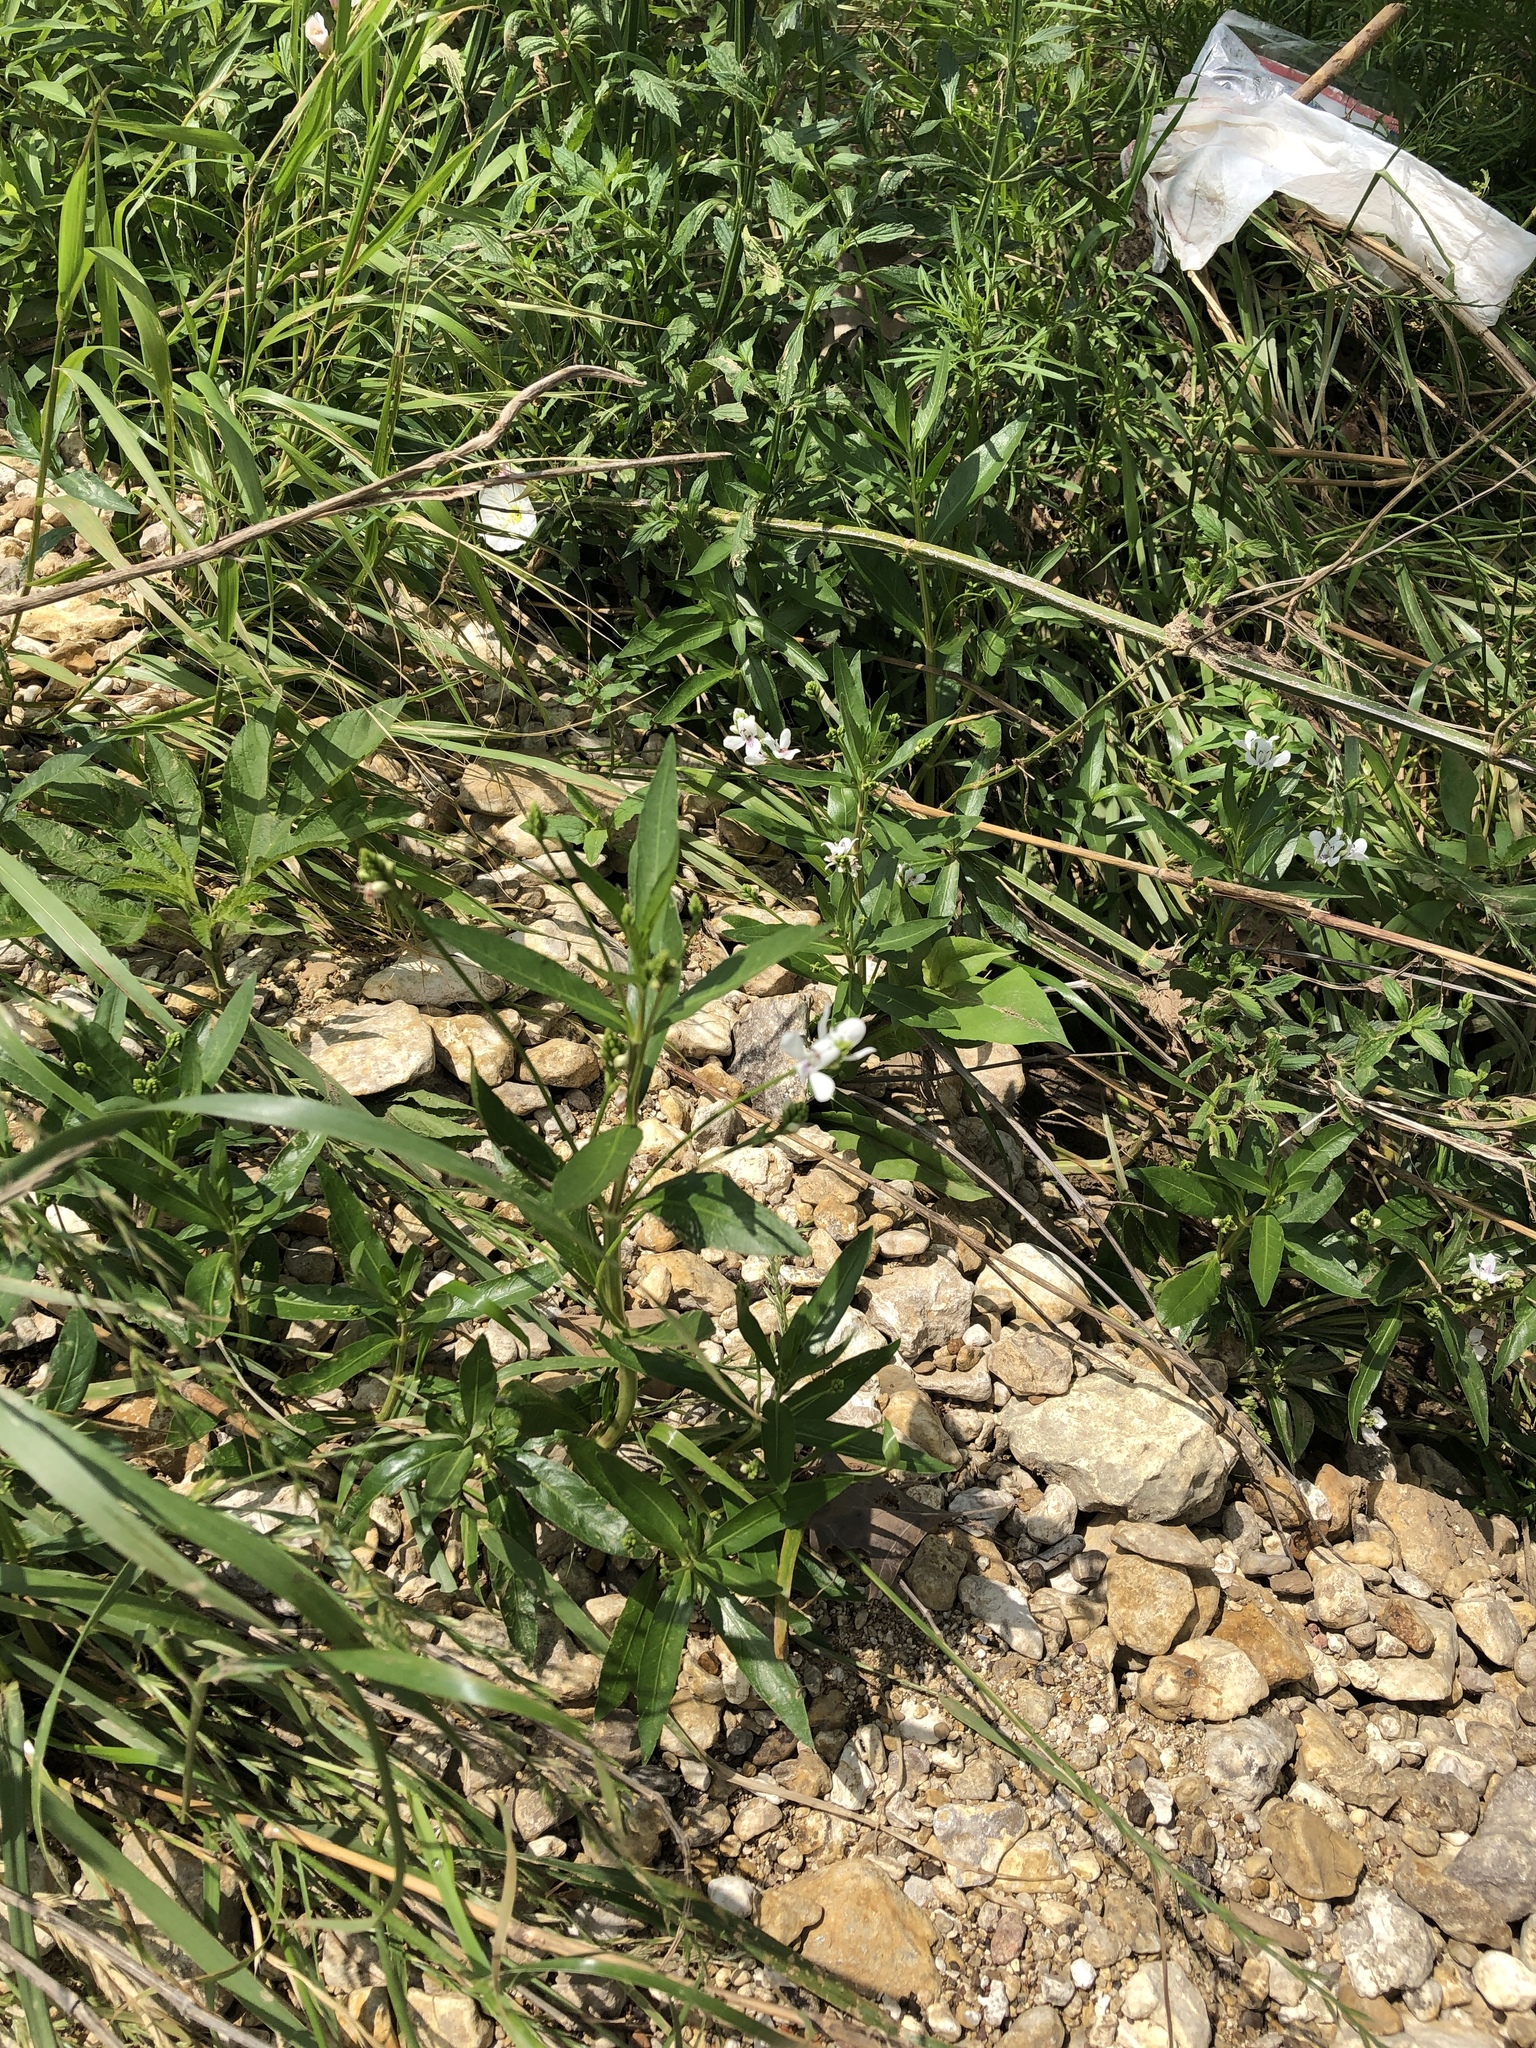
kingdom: Plantae
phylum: Tracheophyta
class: Magnoliopsida
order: Lamiales
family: Acanthaceae
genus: Dianthera
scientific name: Dianthera americana
